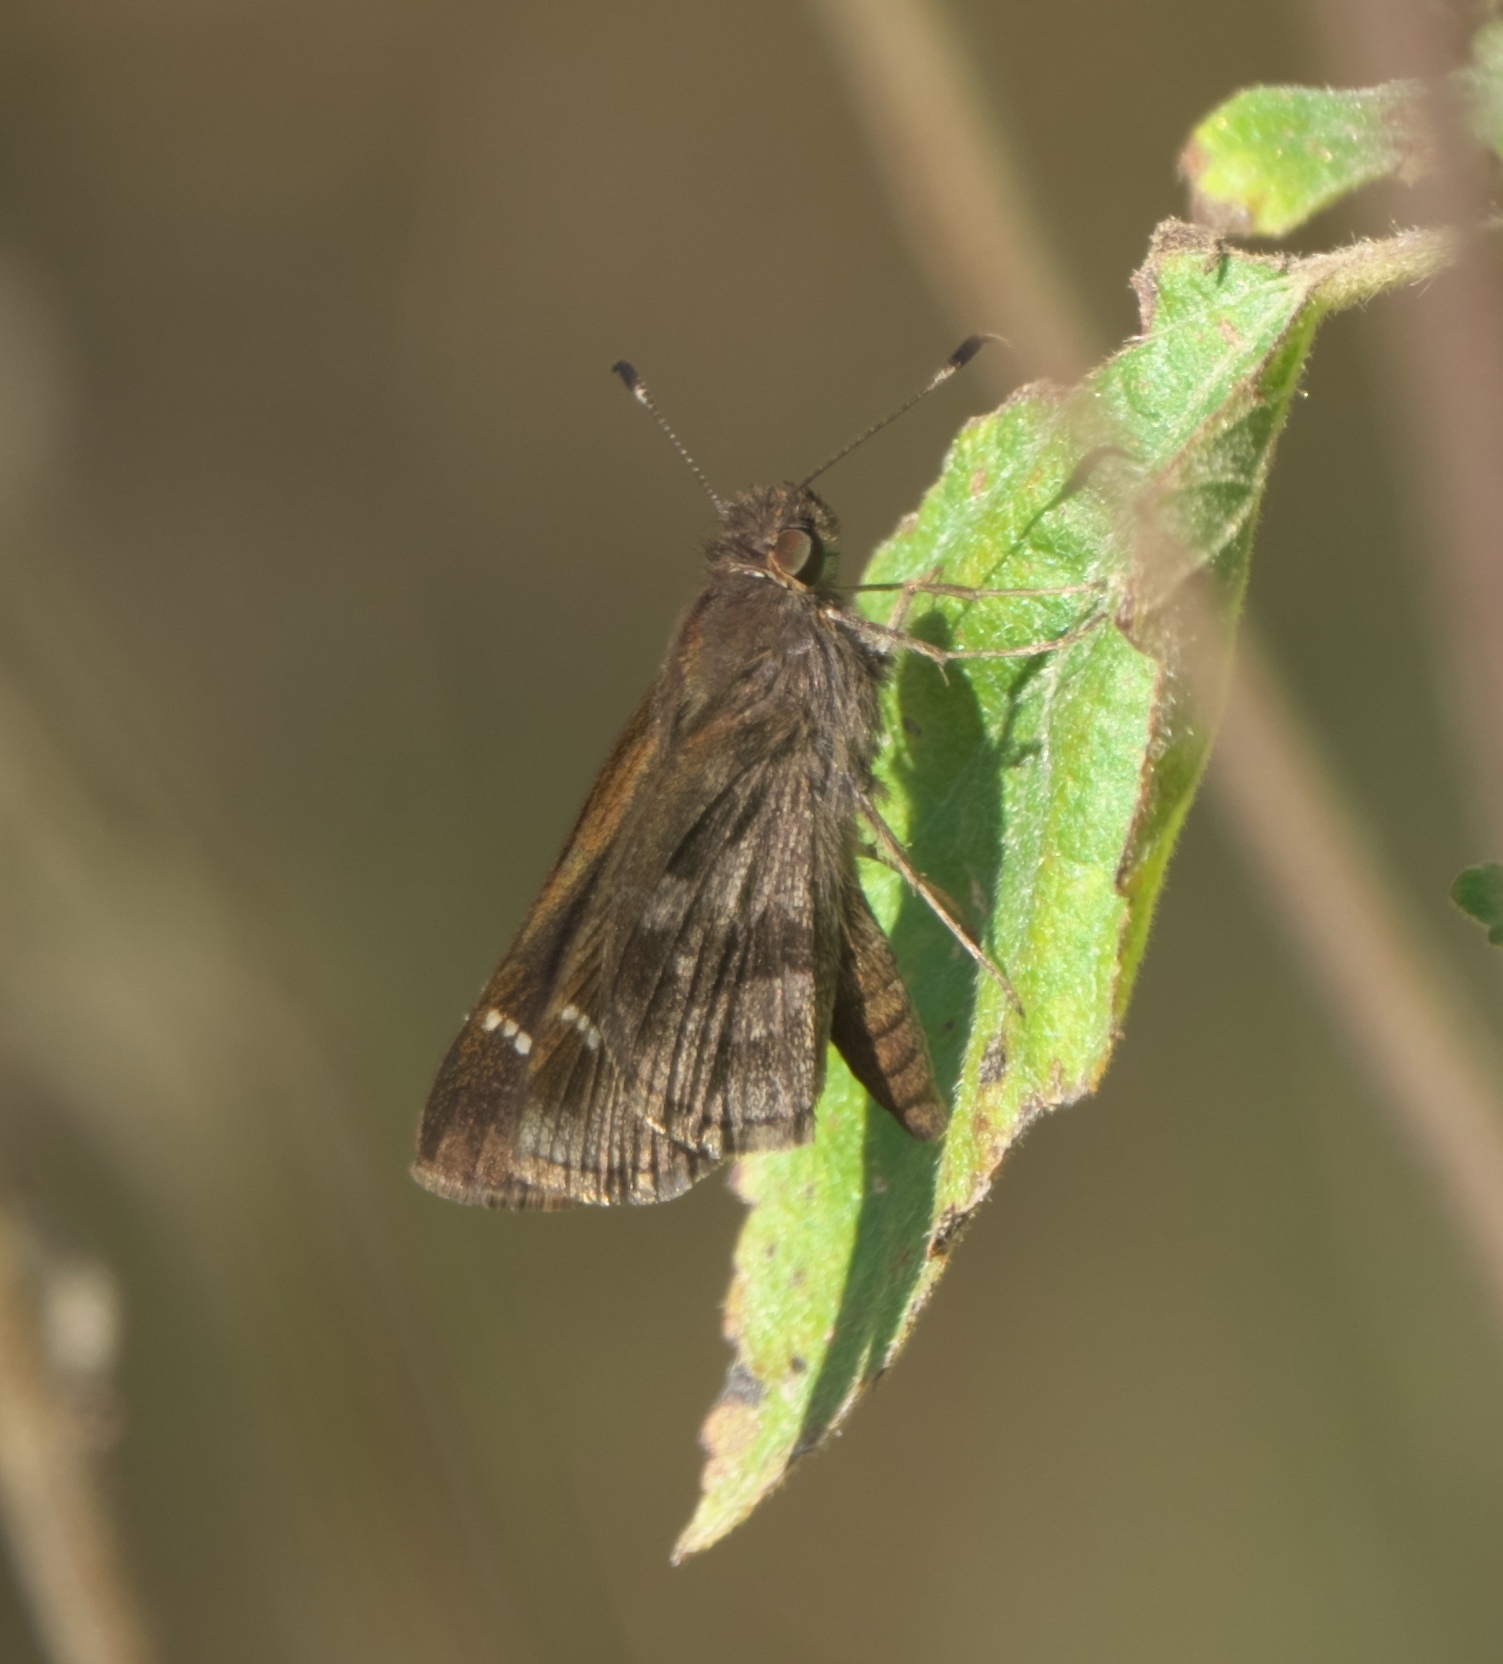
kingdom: Animalia
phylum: Arthropoda
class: Insecta
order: Lepidoptera
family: Hesperiidae
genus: Cymaenes
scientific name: Cymaenes
